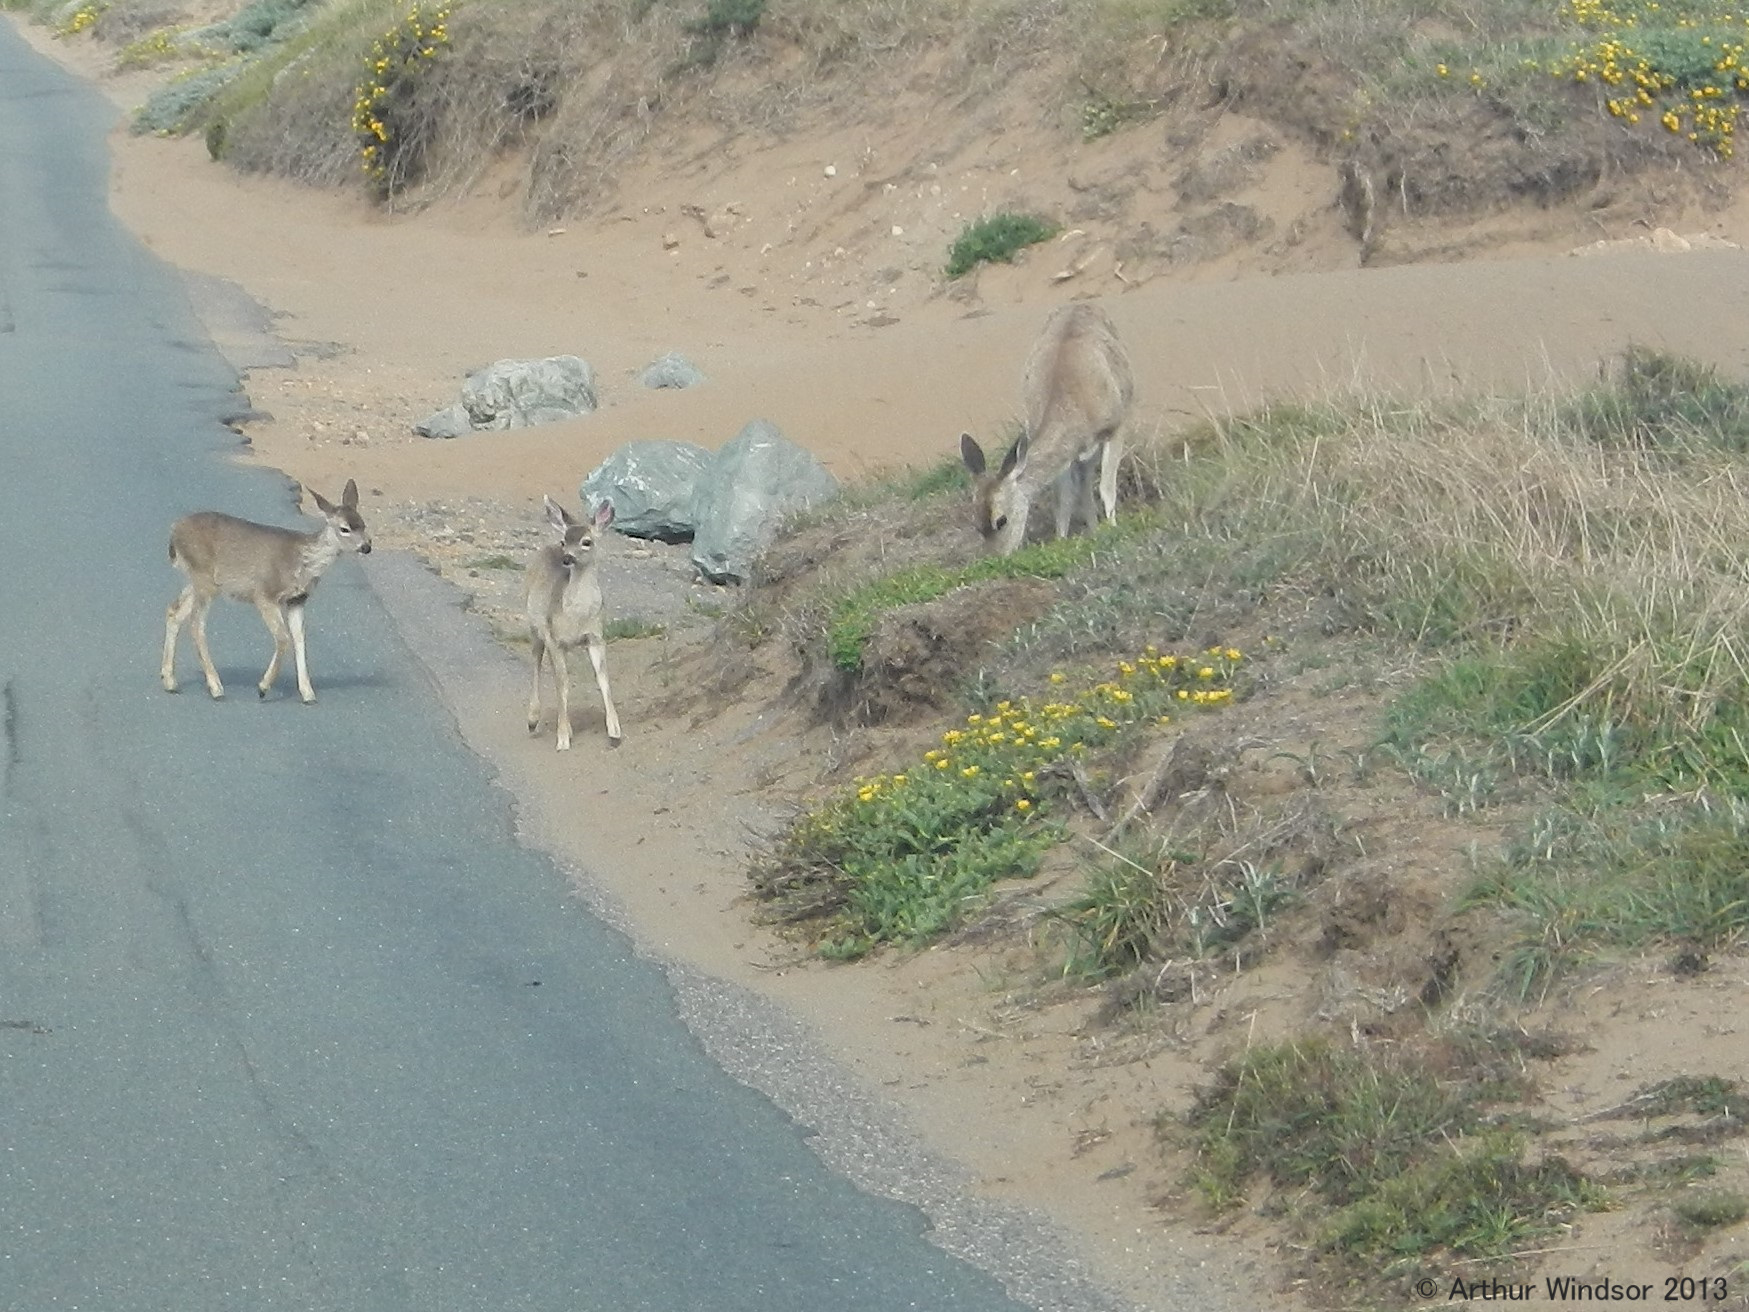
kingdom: Animalia
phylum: Chordata
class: Mammalia
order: Artiodactyla
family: Cervidae
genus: Odocoileus
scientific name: Odocoileus hemionus
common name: Mule deer
